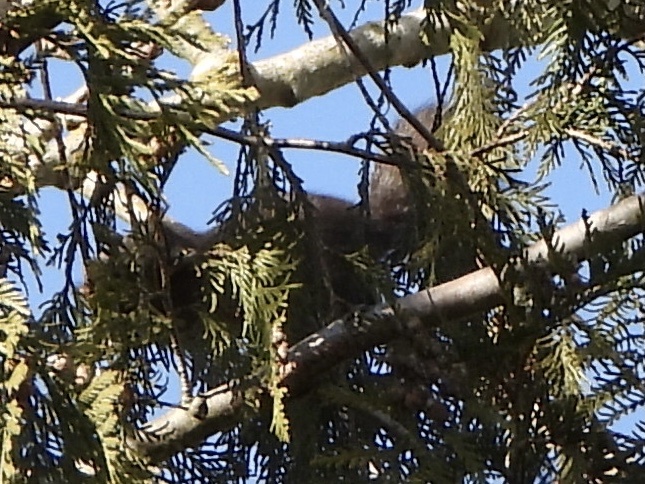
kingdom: Animalia
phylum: Chordata
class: Mammalia
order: Rodentia
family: Sciuridae
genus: Sciurus
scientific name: Sciurus carolinensis
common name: Eastern gray squirrel
